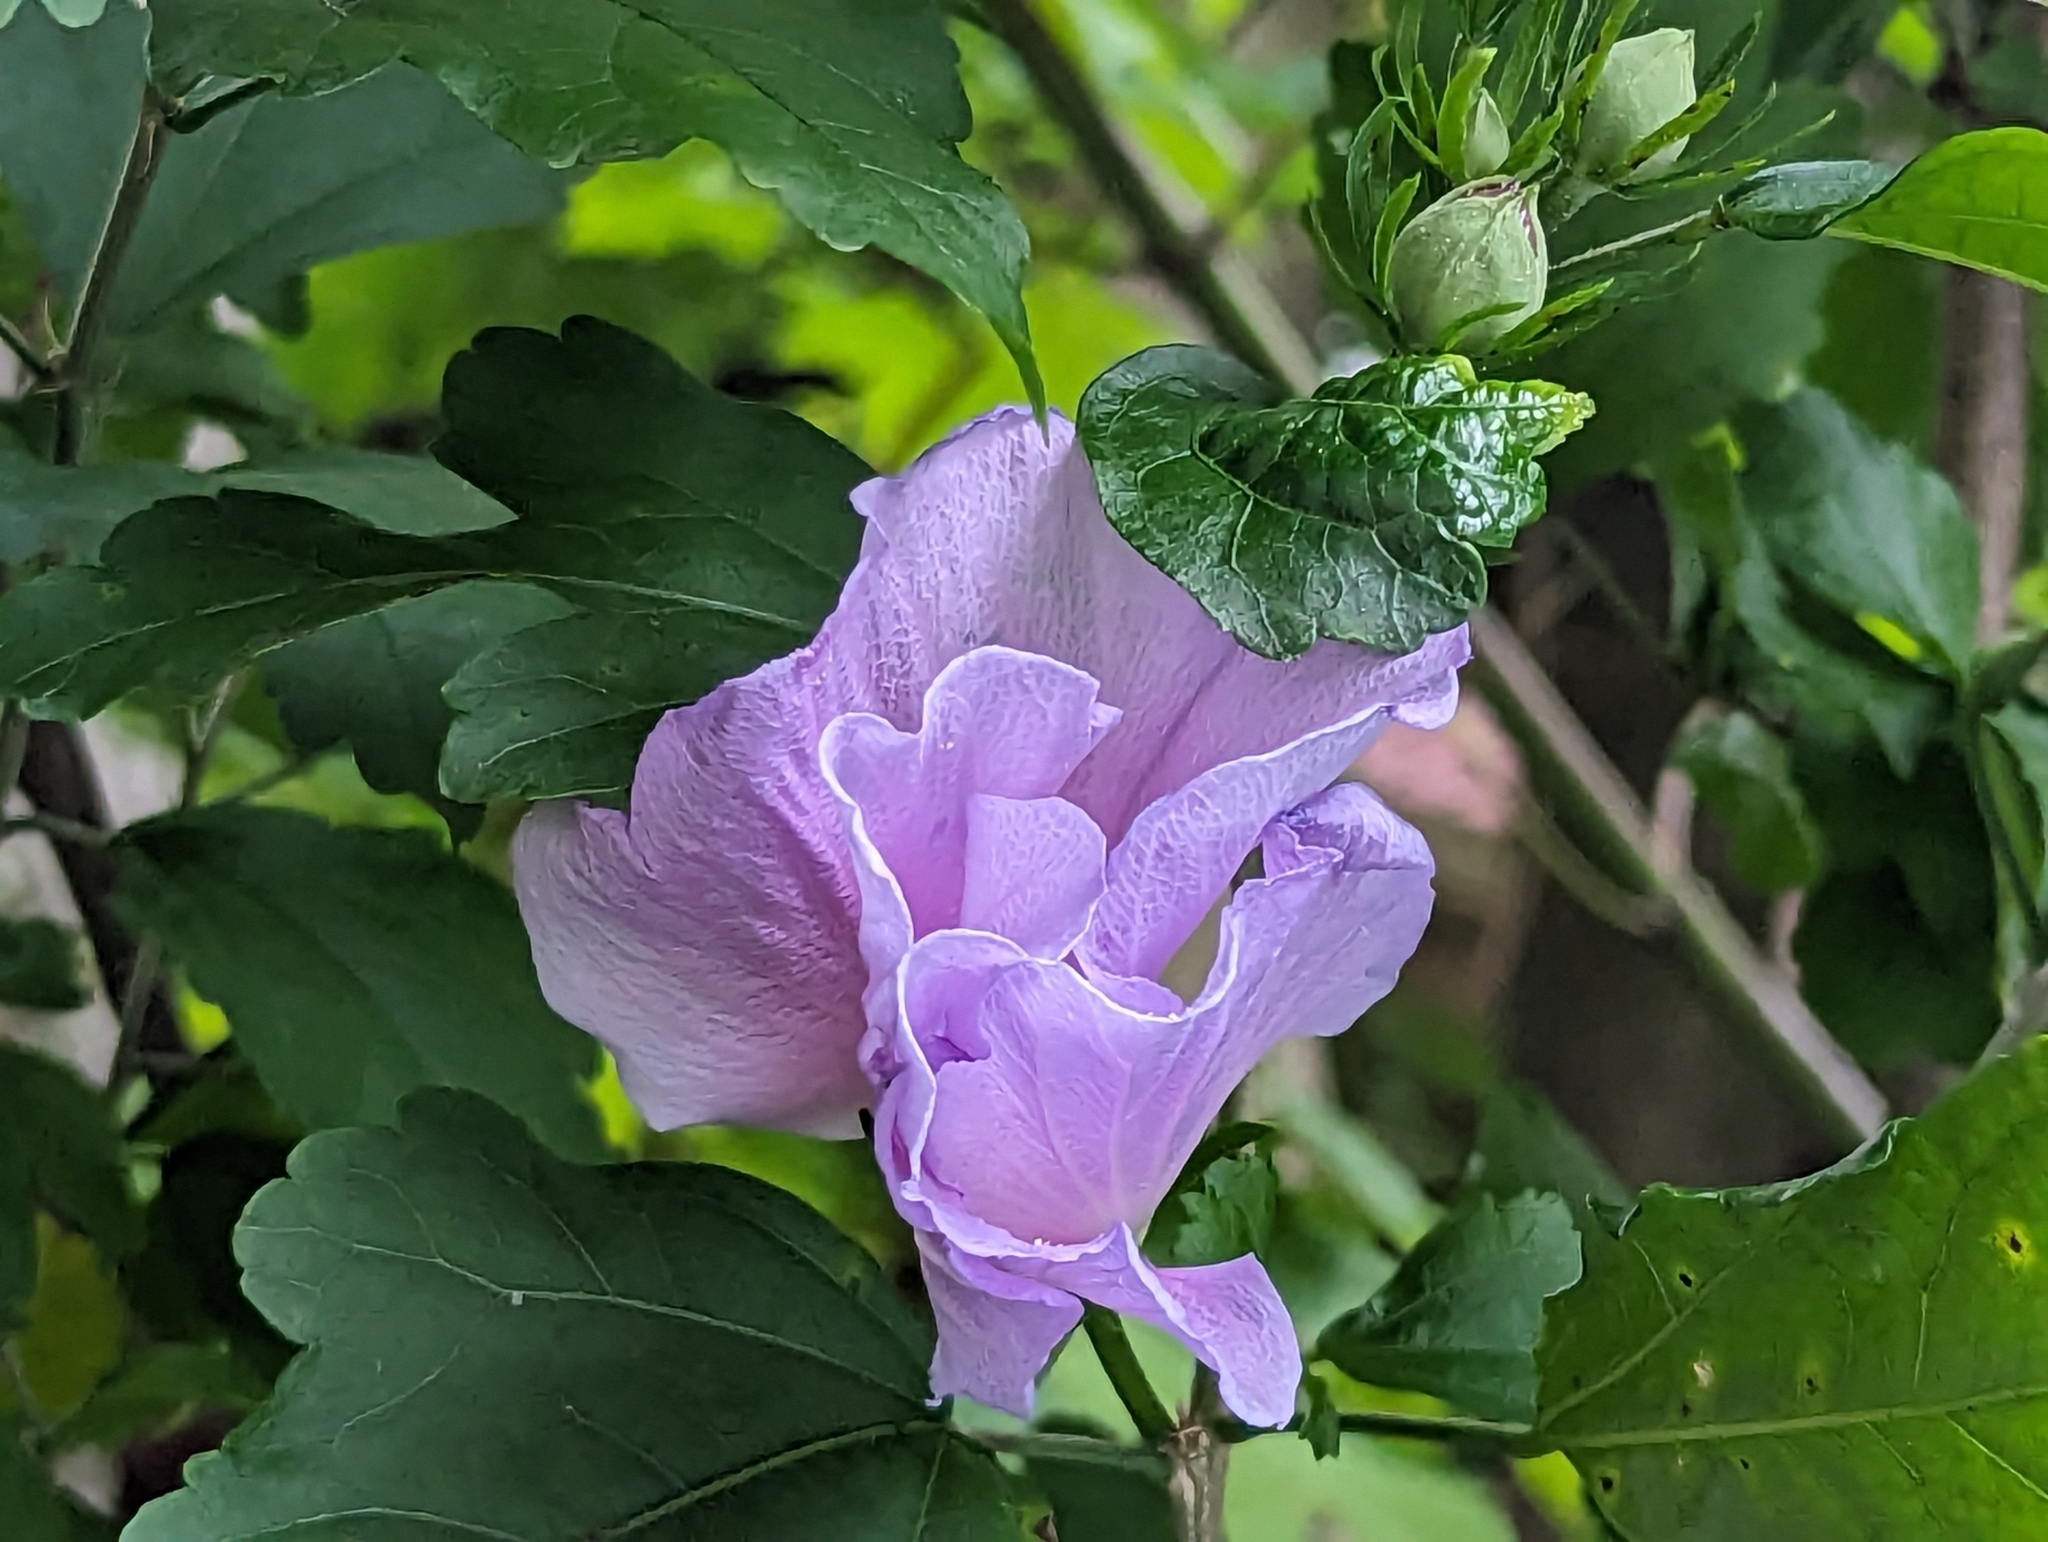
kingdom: Plantae
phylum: Tracheophyta
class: Magnoliopsida
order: Malvales
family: Malvaceae
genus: Hibiscus
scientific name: Hibiscus syriacus
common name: Syrian ketmia
